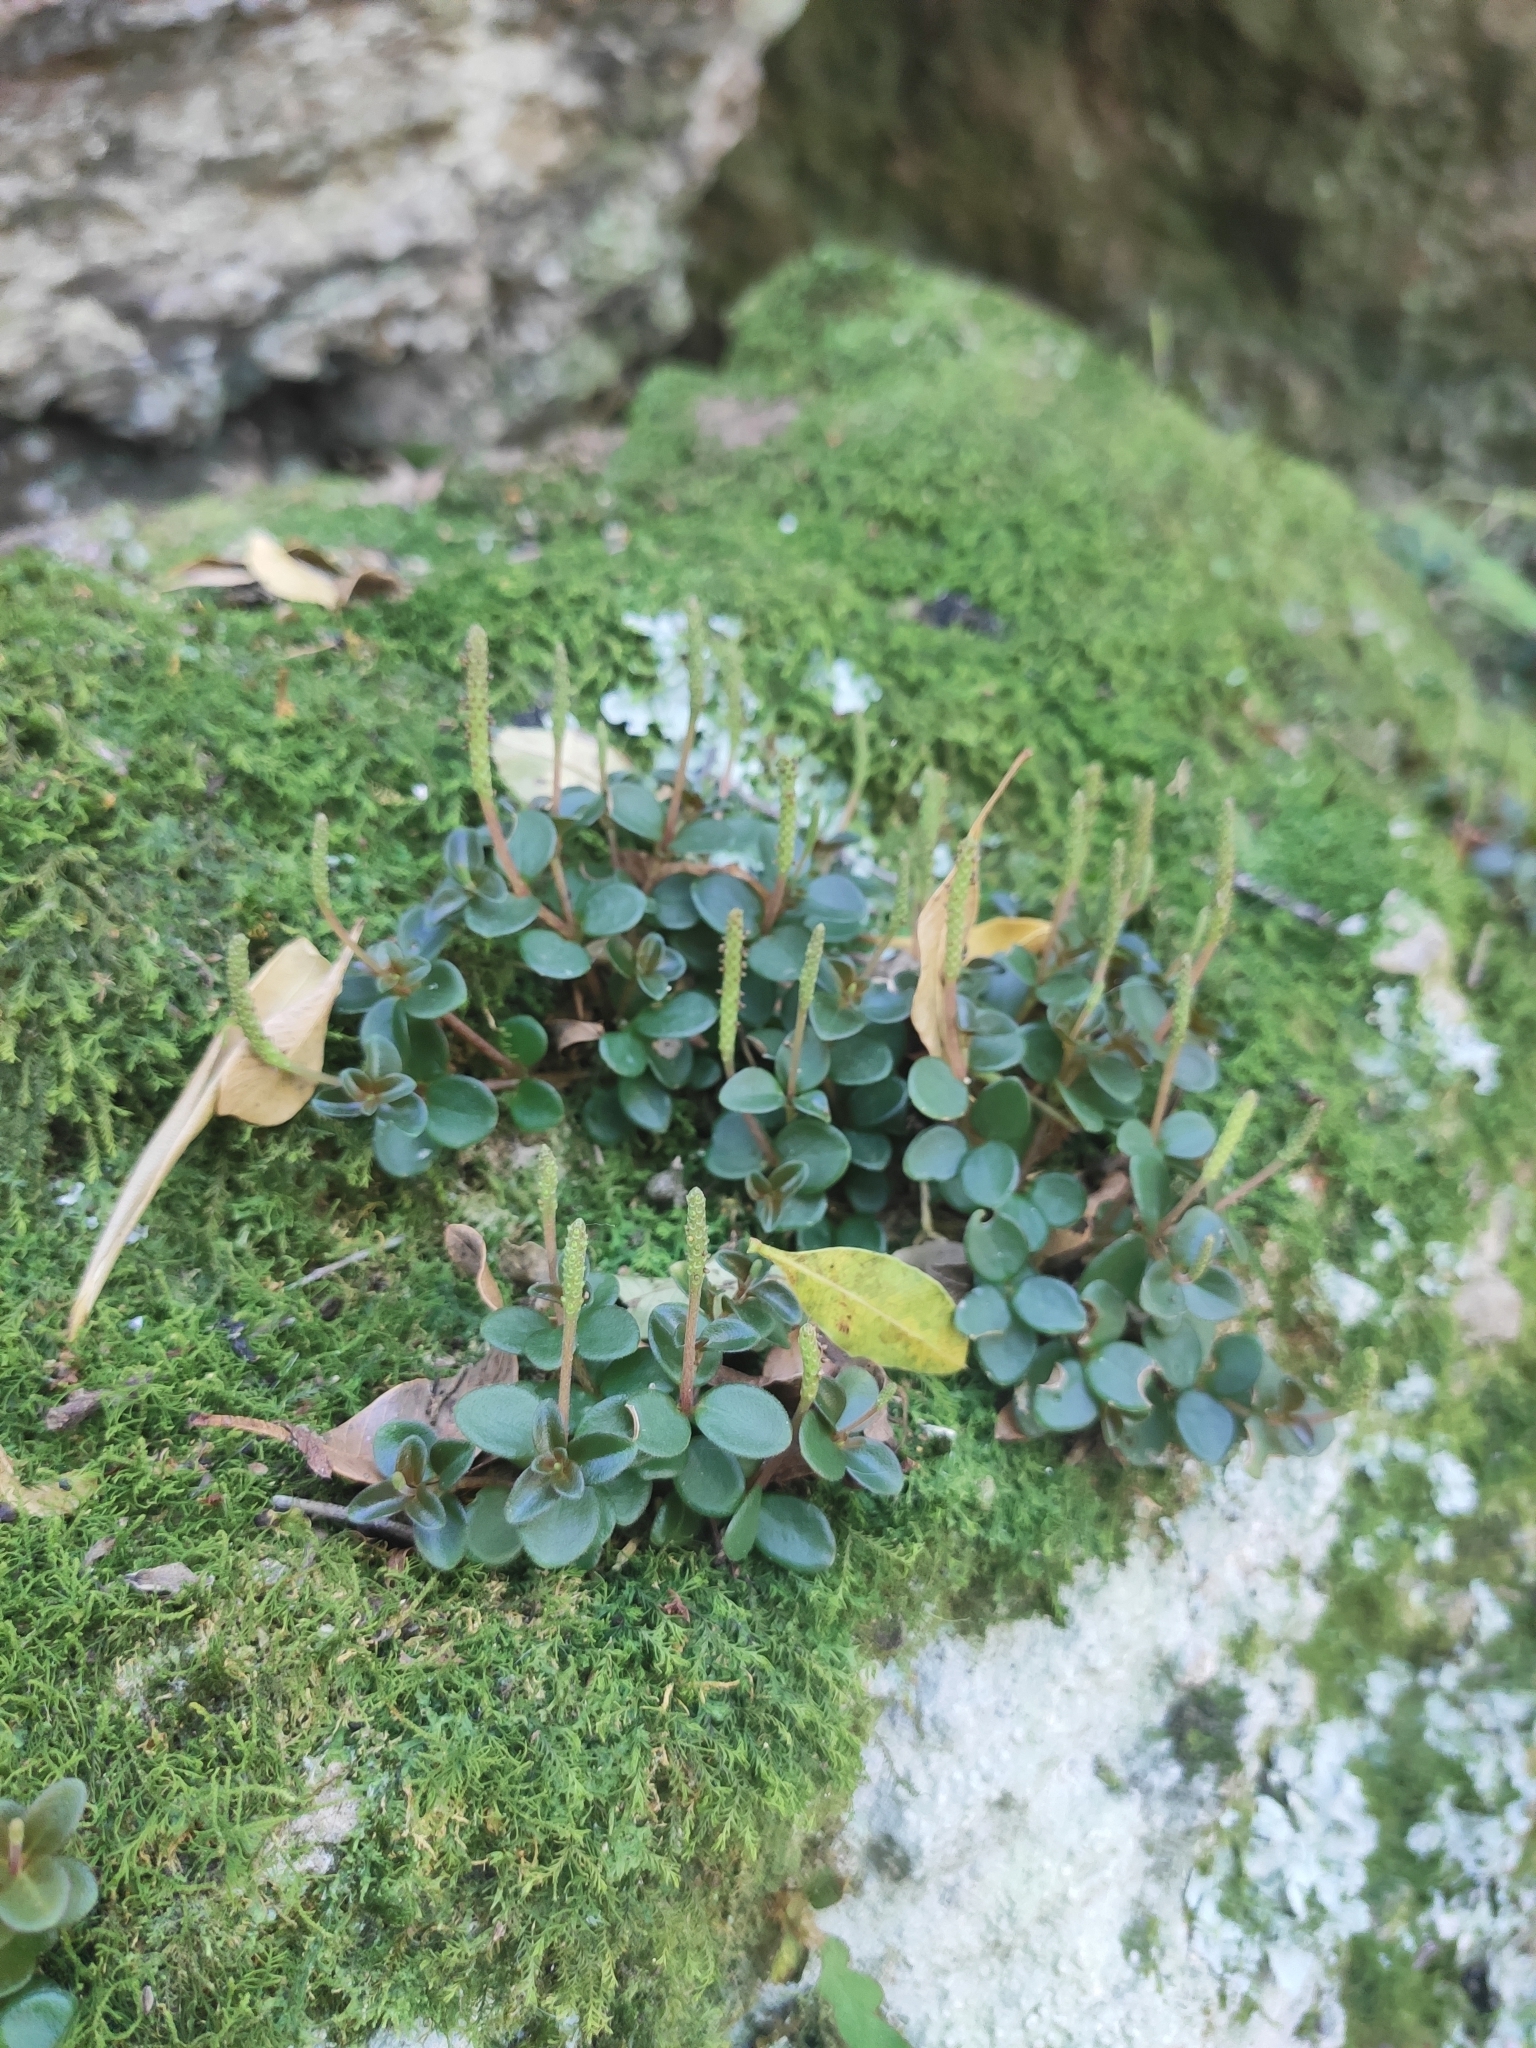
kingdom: Plantae
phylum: Tracheophyta
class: Magnoliopsida
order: Piperales
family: Piperaceae
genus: Peperomia
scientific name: Peperomia catharinae
